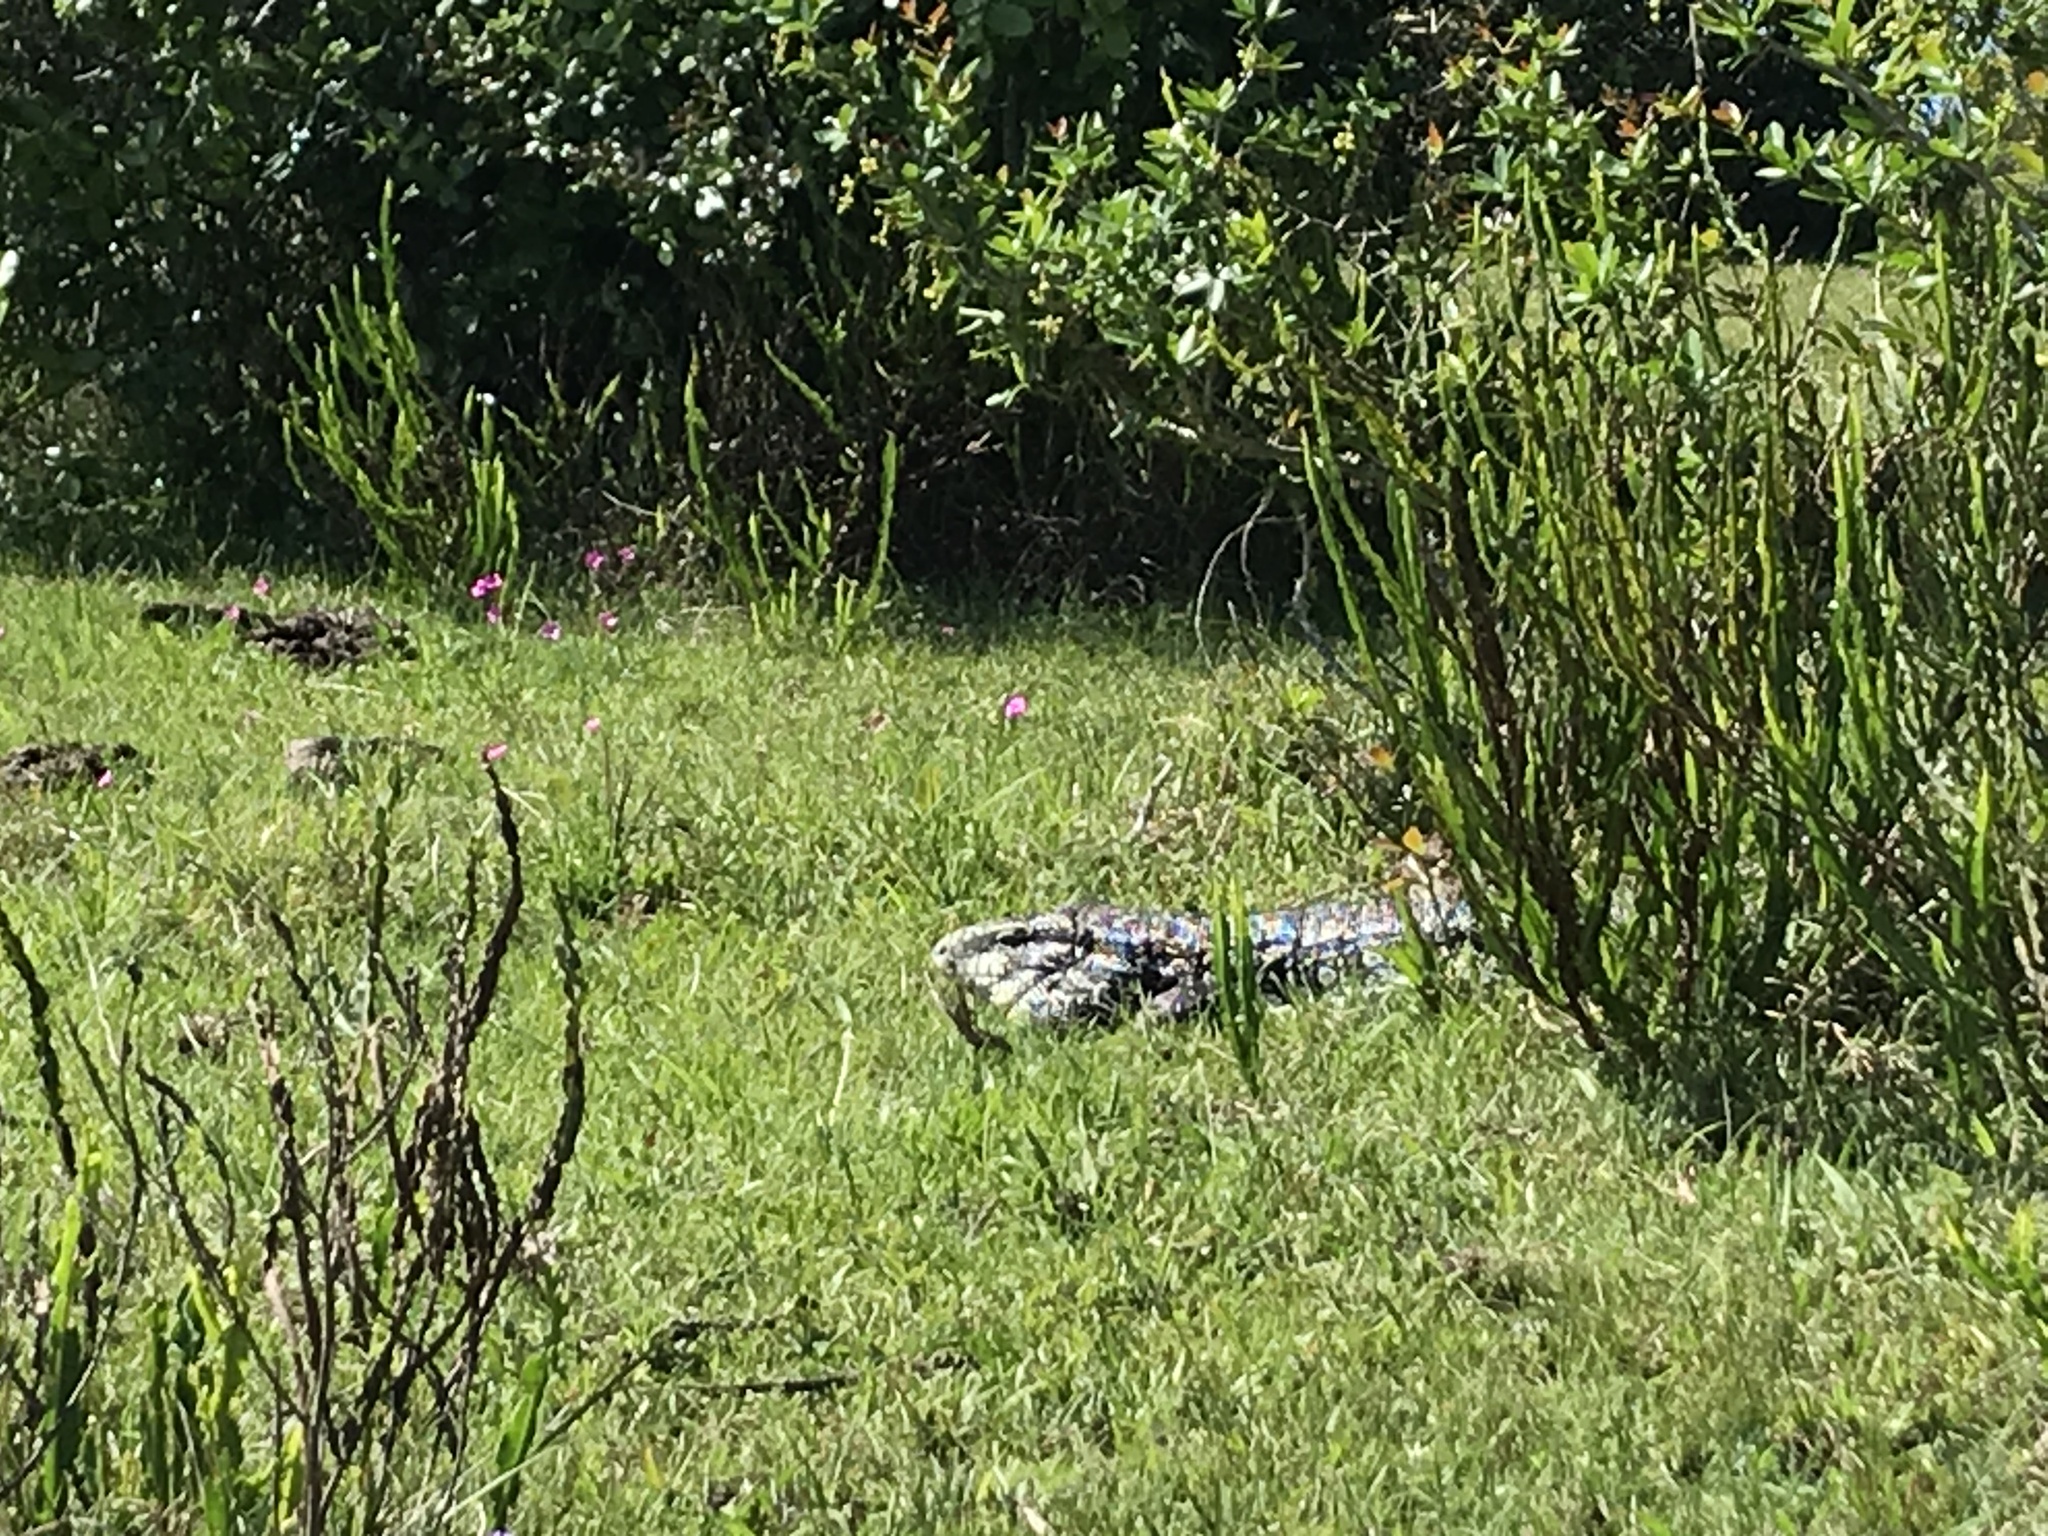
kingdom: Animalia
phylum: Chordata
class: Squamata
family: Teiidae
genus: Salvator
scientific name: Salvator merianae
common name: Argentine black and white tegu
